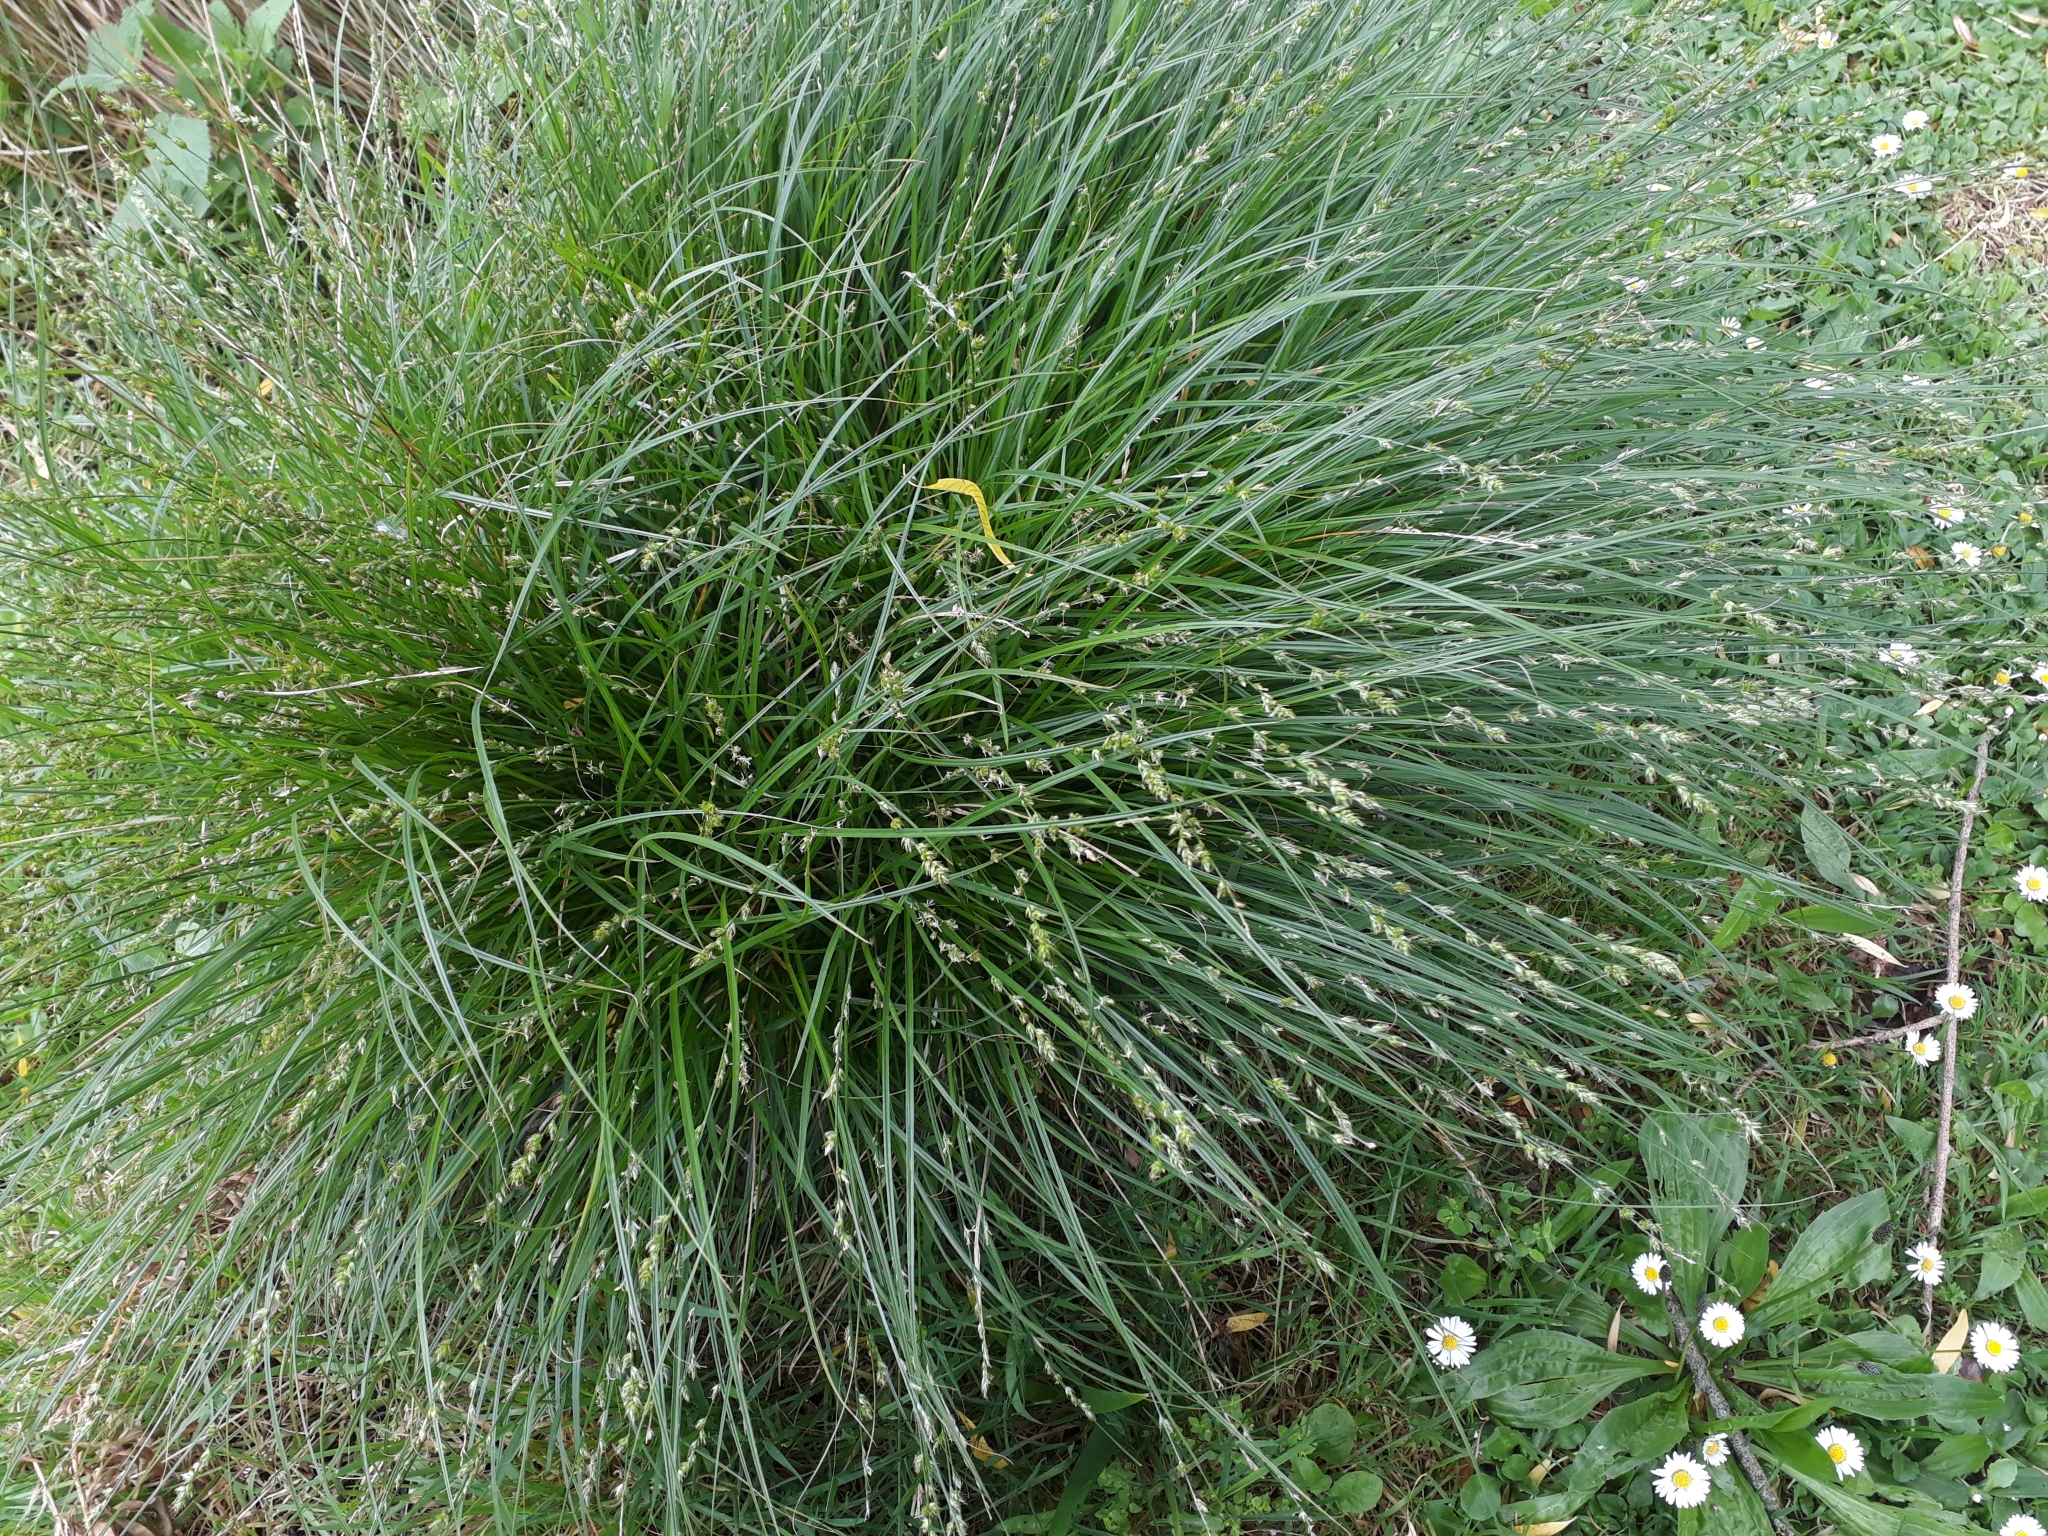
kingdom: Plantae
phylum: Tracheophyta
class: Liliopsida
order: Poales
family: Cyperaceae
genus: Carex
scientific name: Carex divulsa
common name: Grassland sedge
